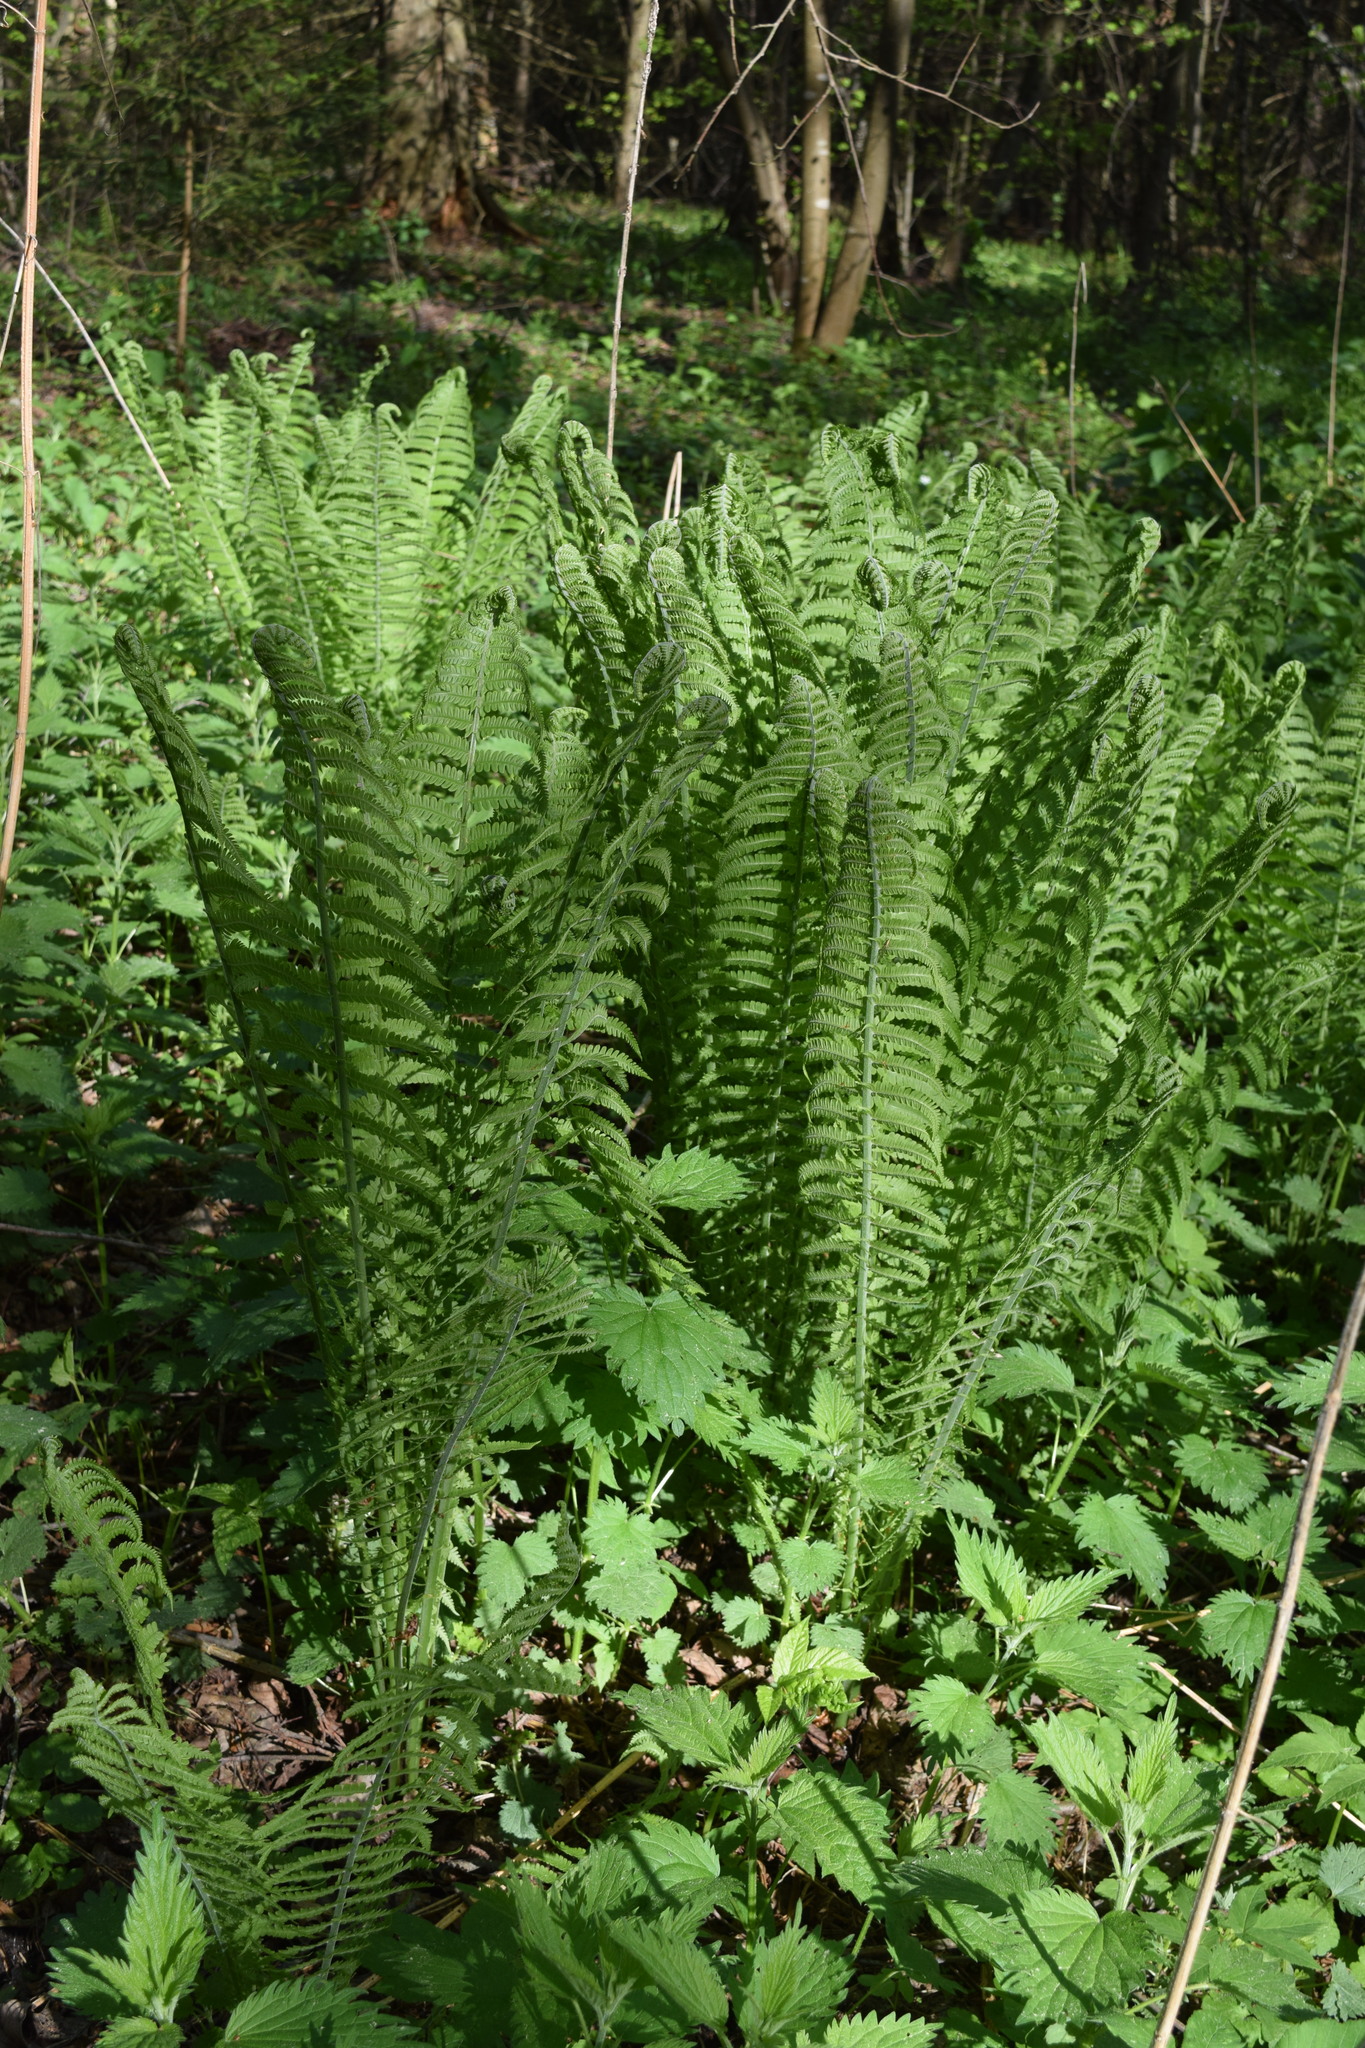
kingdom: Plantae
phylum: Tracheophyta
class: Polypodiopsida
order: Polypodiales
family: Onocleaceae
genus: Matteuccia
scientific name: Matteuccia struthiopteris
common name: Ostrich fern
